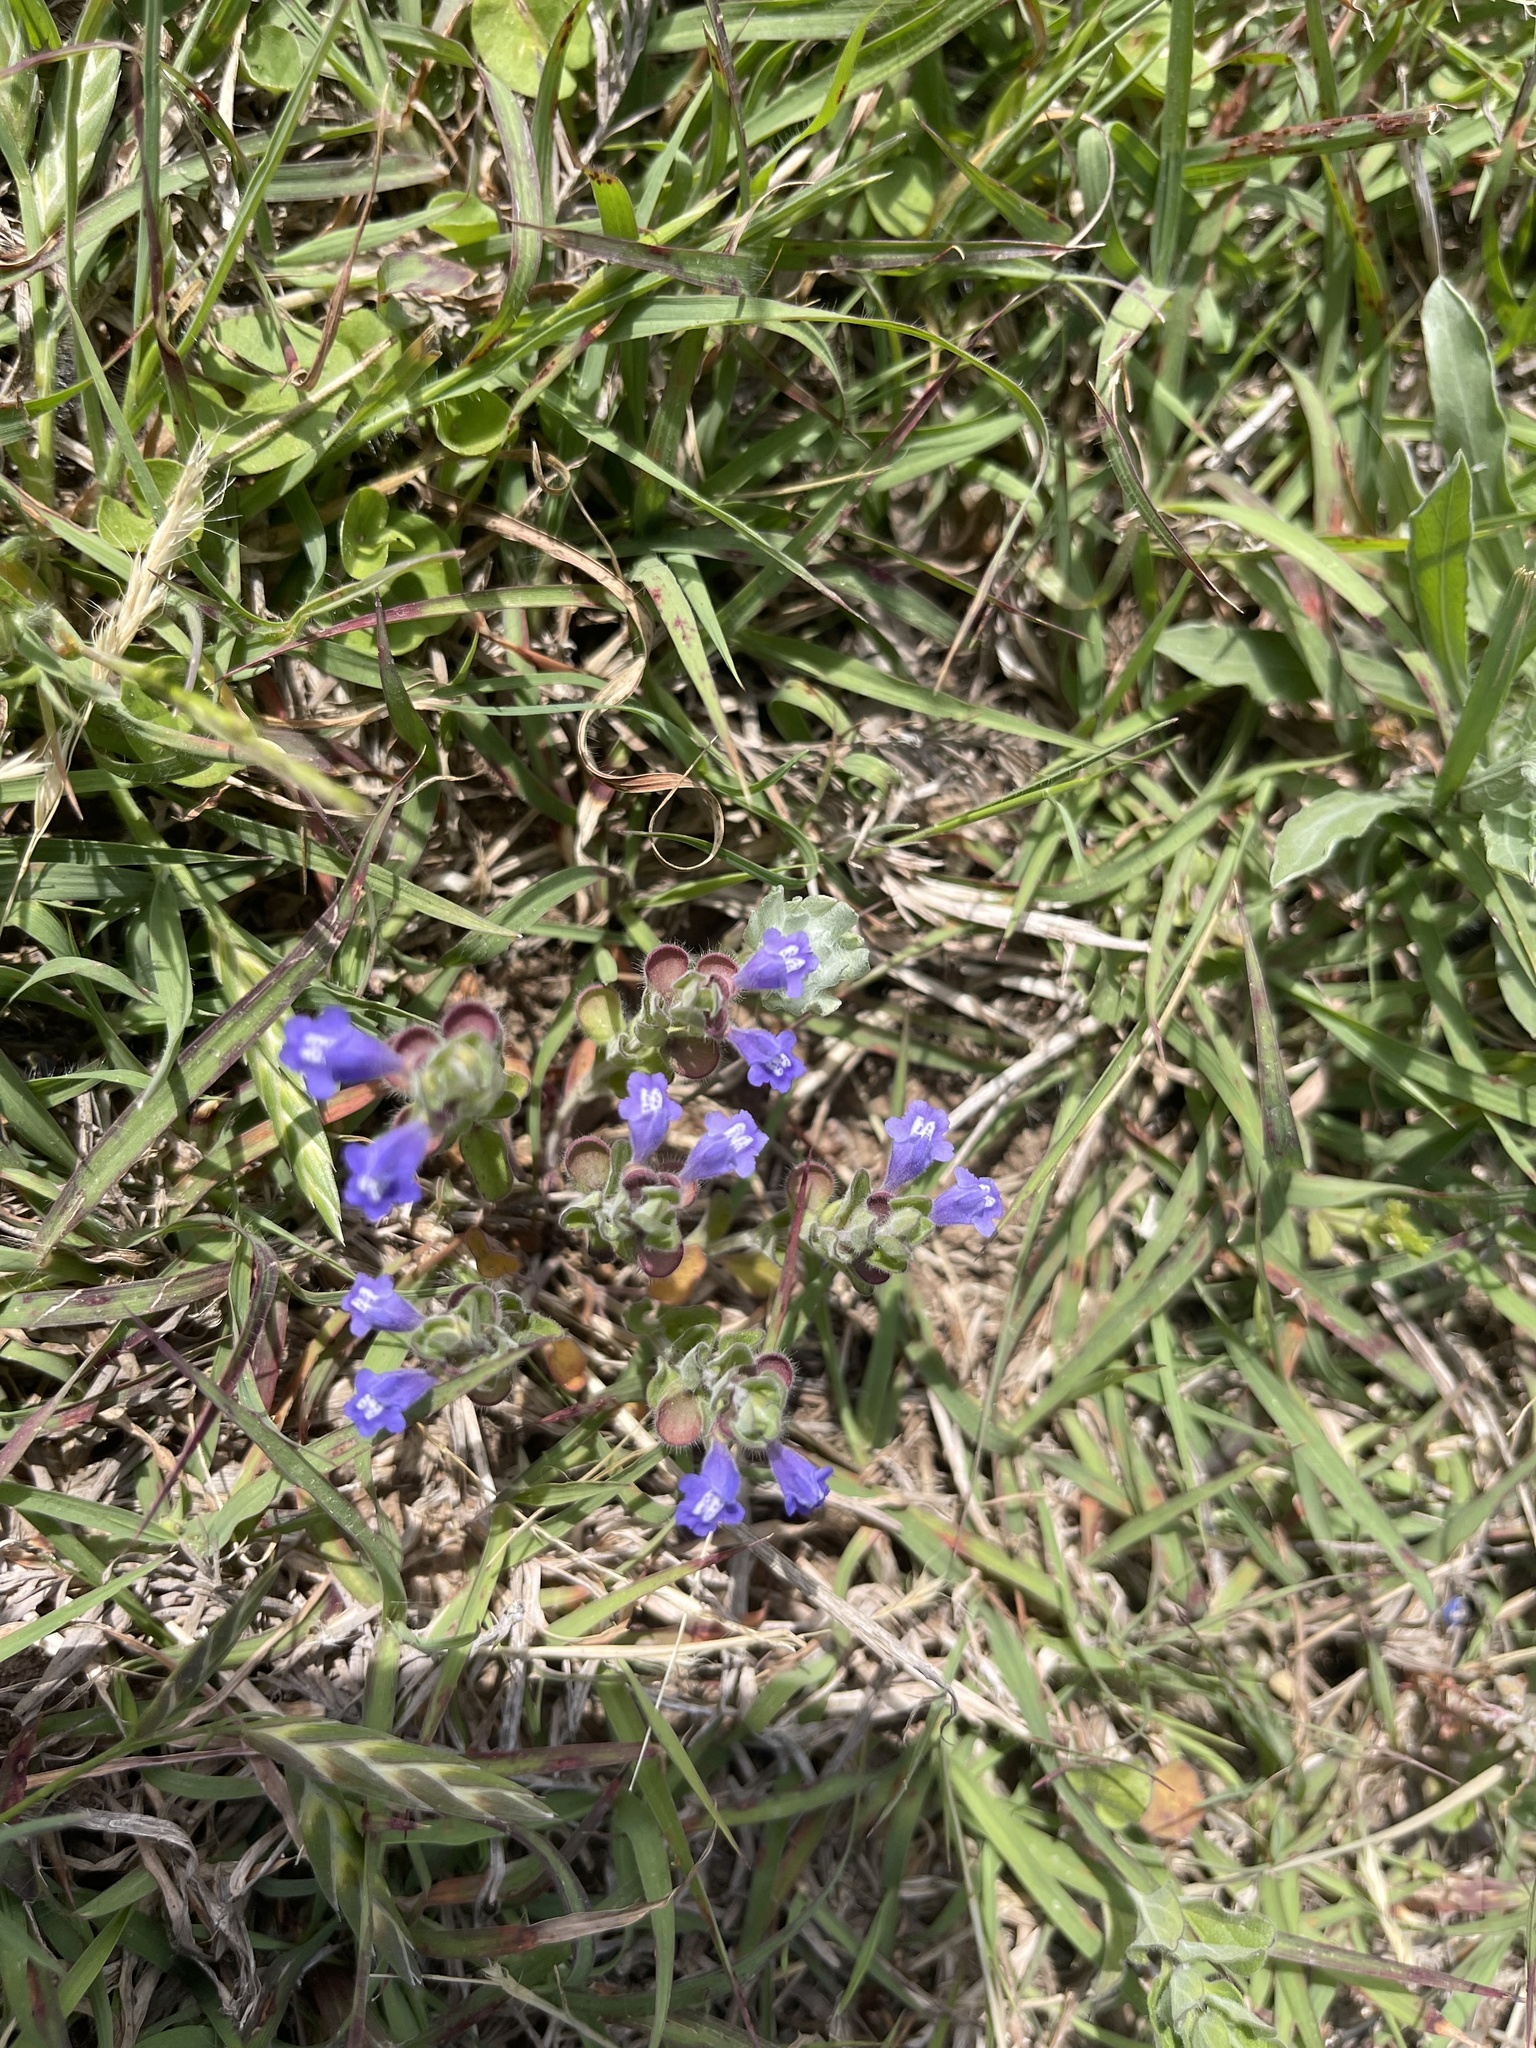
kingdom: Plantae
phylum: Tracheophyta
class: Magnoliopsida
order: Lamiales
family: Lamiaceae
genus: Scutellaria
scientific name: Scutellaria drummondii
